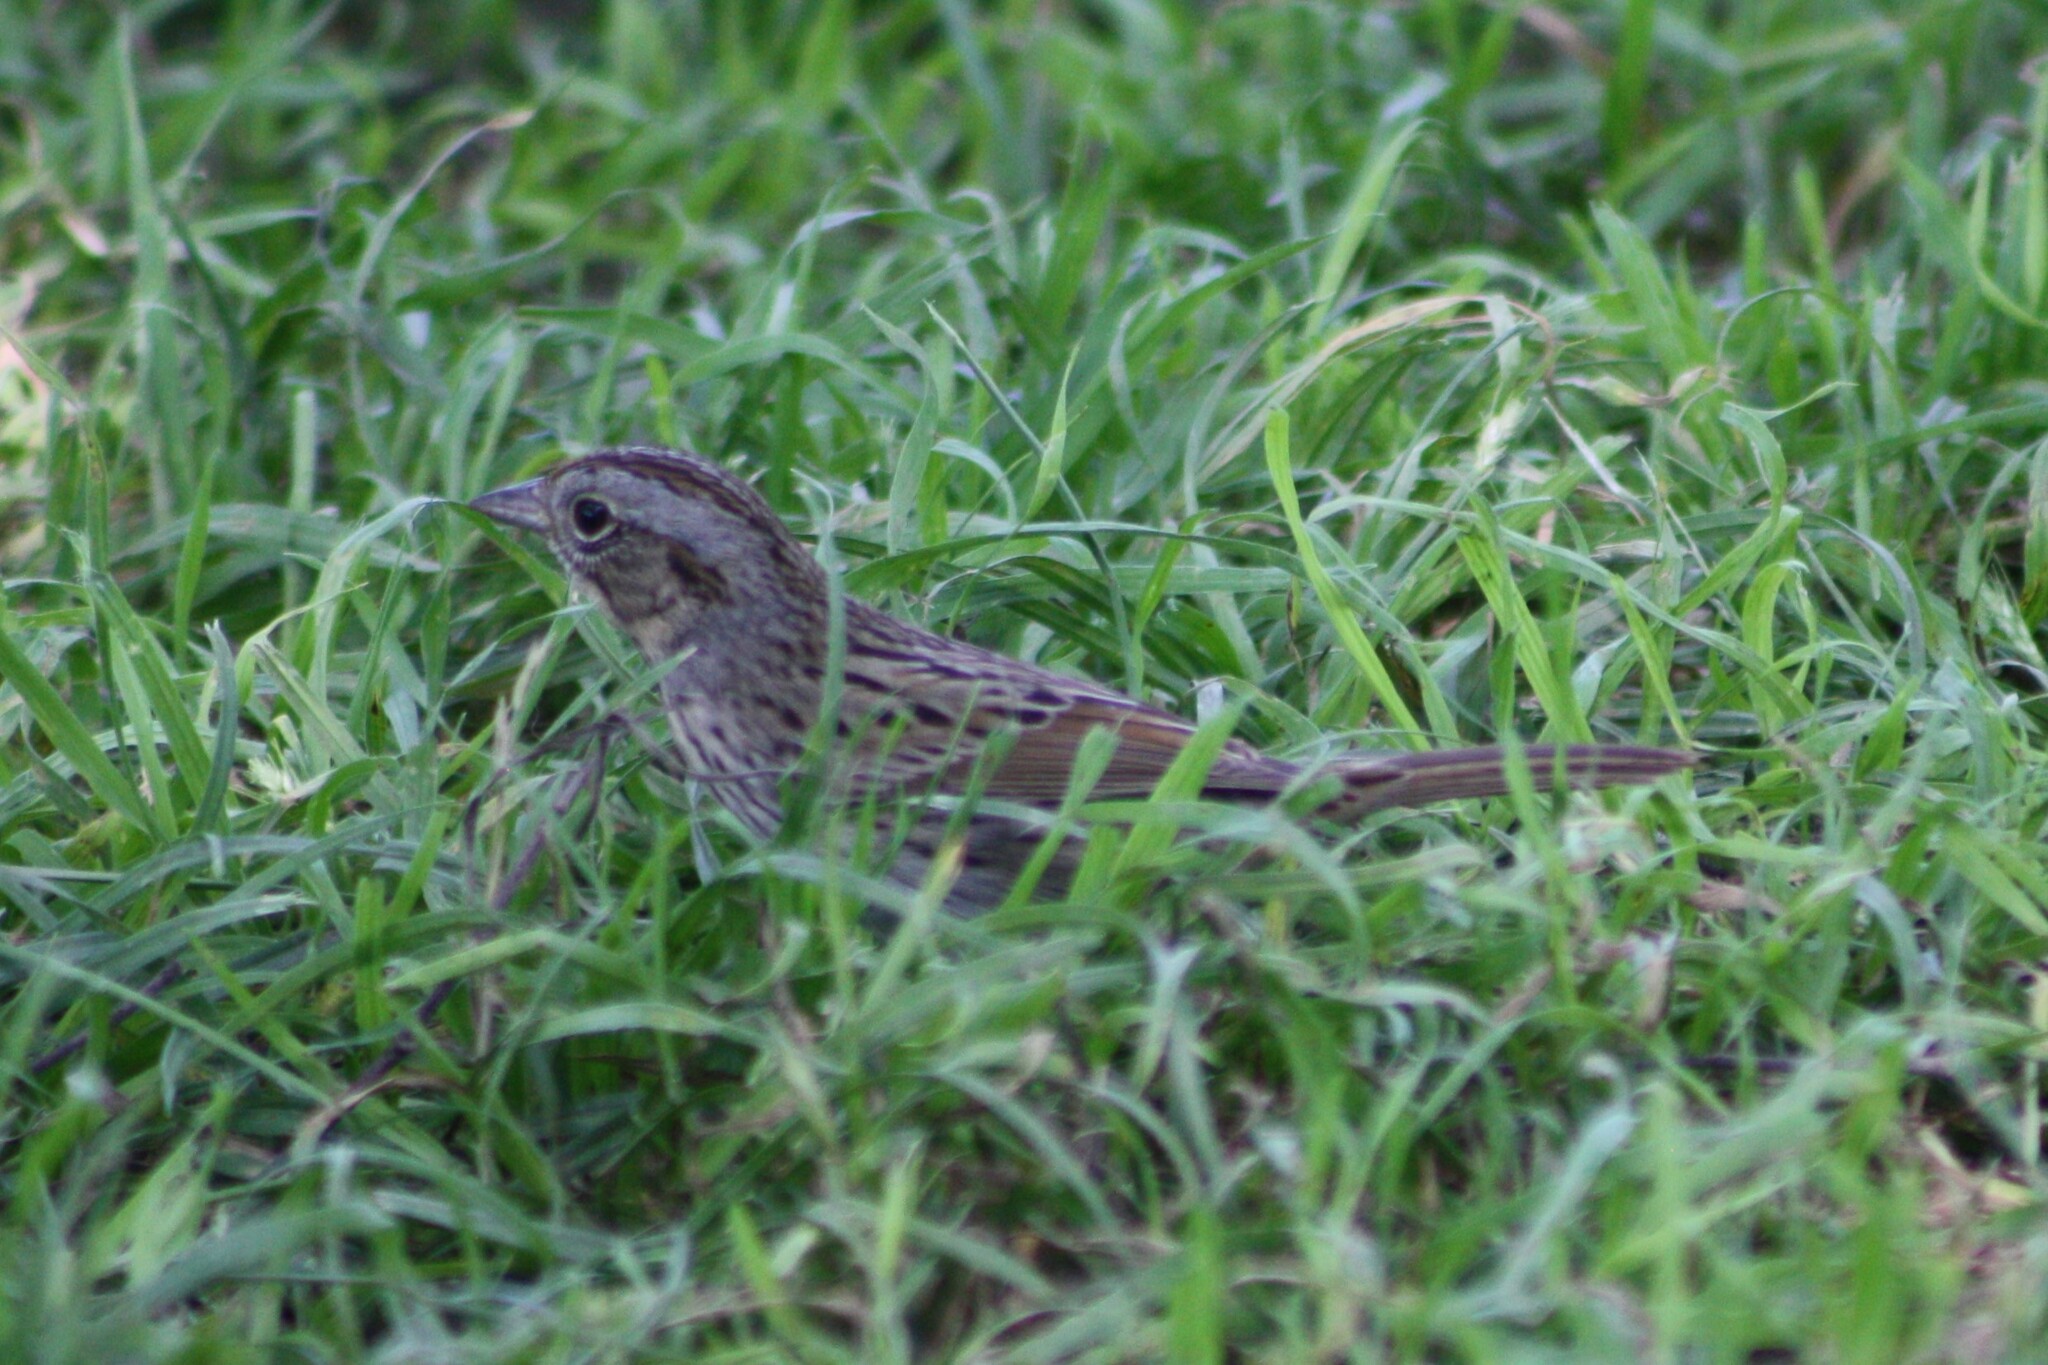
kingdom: Animalia
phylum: Chordata
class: Aves
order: Passeriformes
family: Passerellidae
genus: Melospiza
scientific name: Melospiza lincolnii
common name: Lincoln's sparrow
